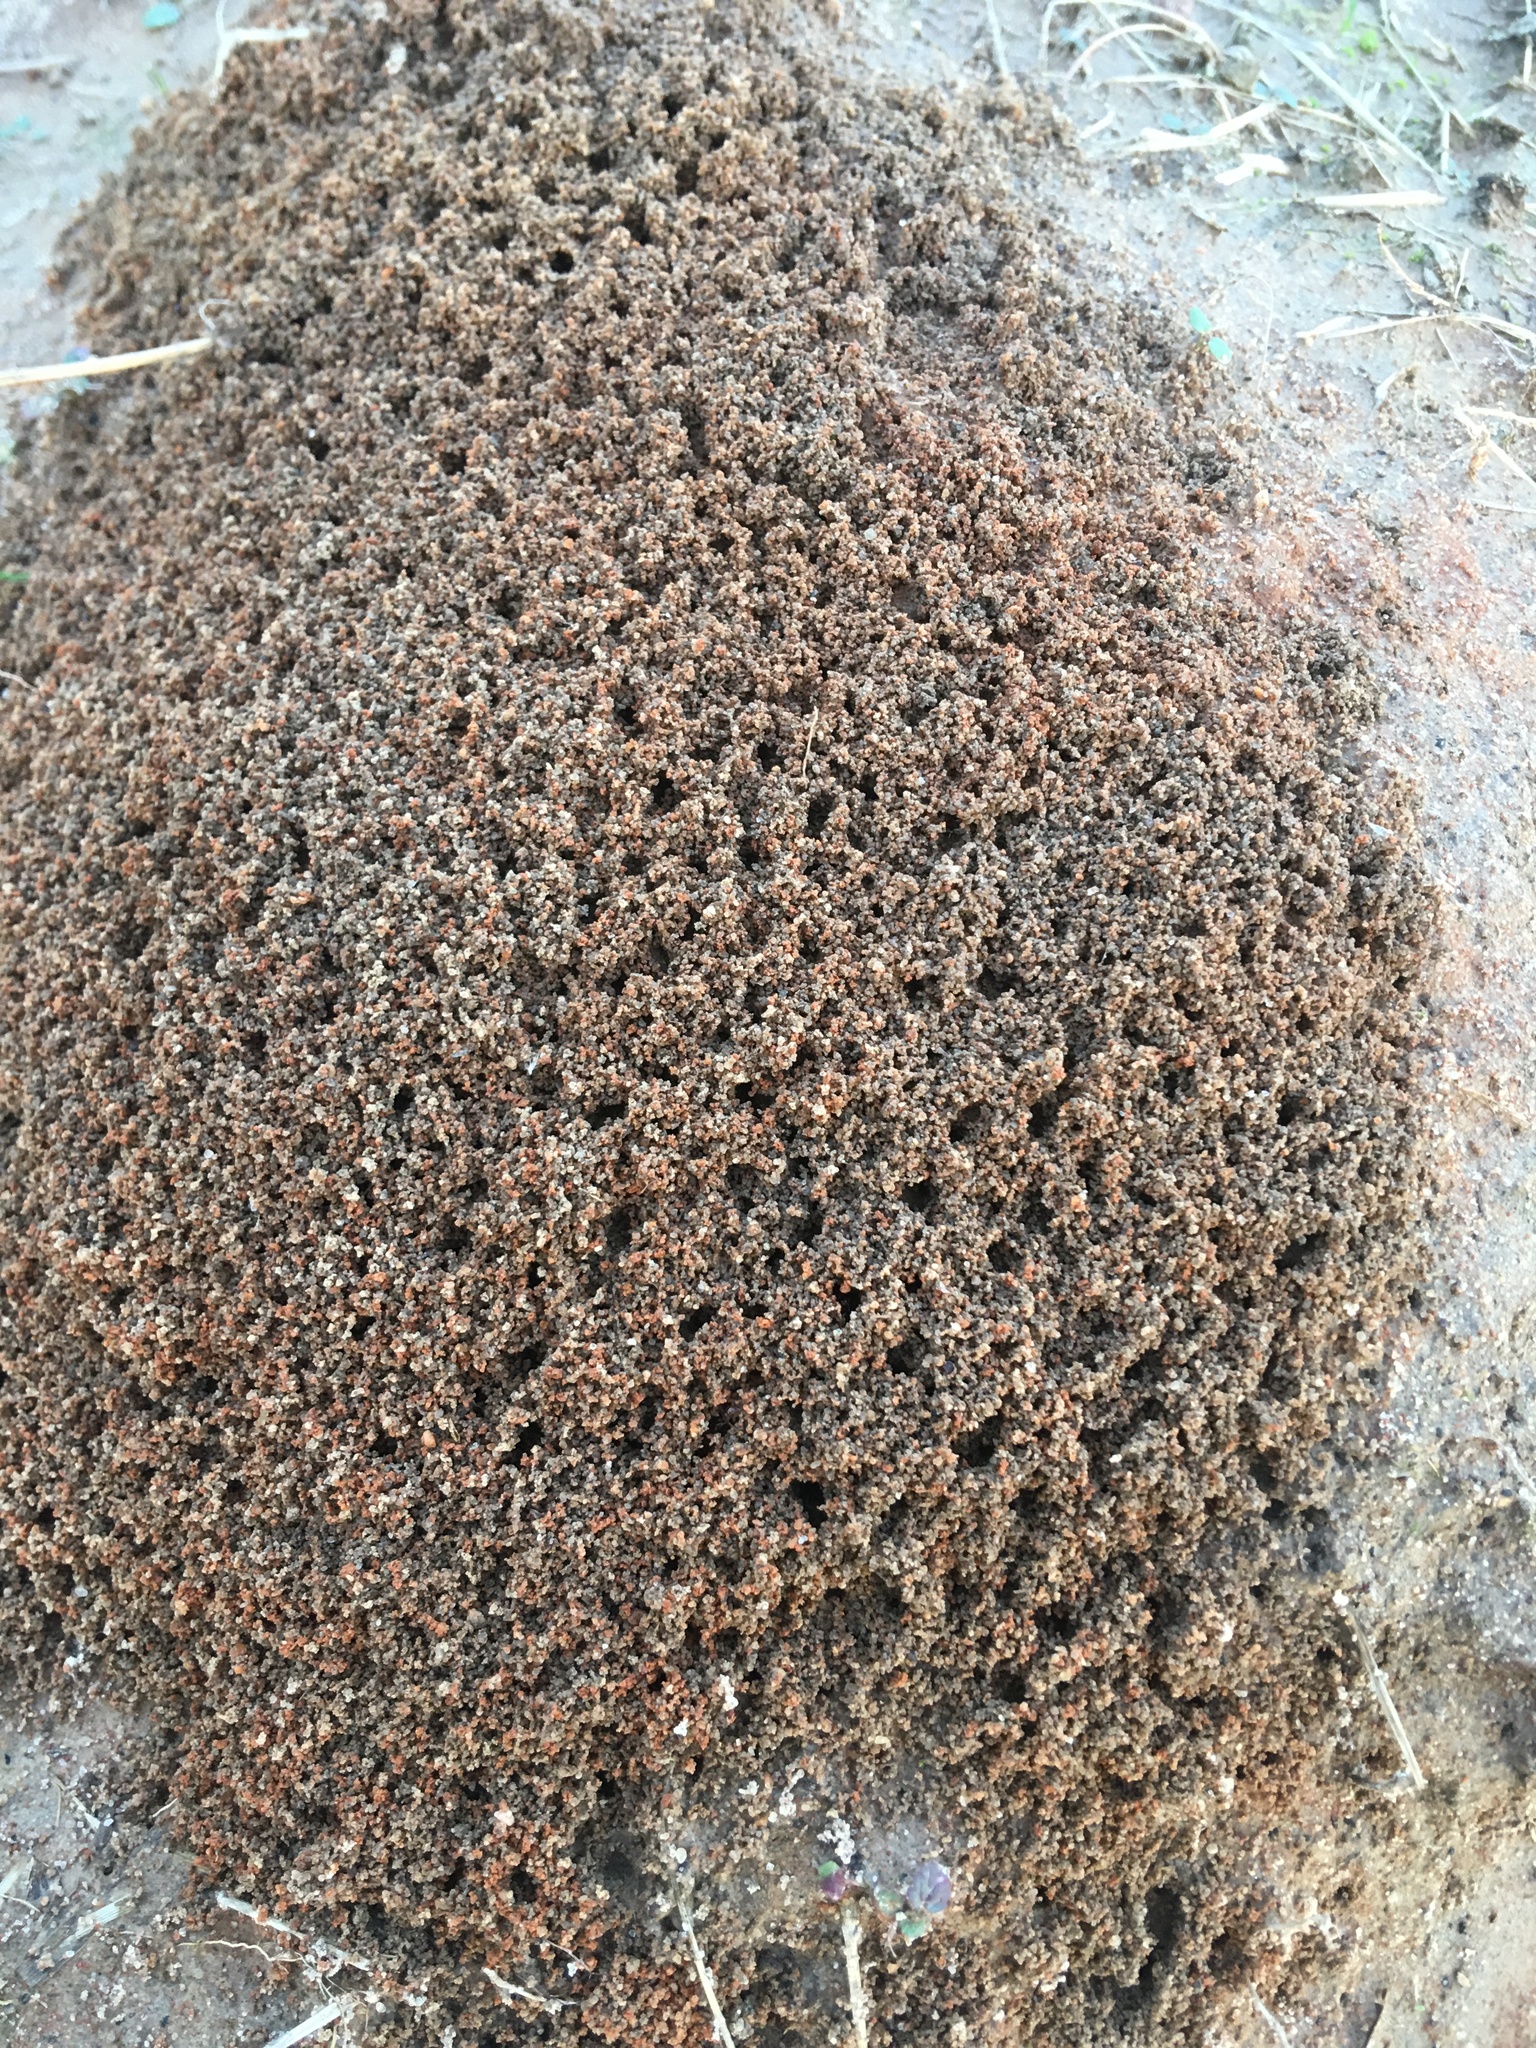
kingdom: Animalia
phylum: Arthropoda
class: Insecta
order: Hymenoptera
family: Formicidae
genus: Solenopsis
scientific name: Solenopsis invicta
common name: Red imported fire ant
